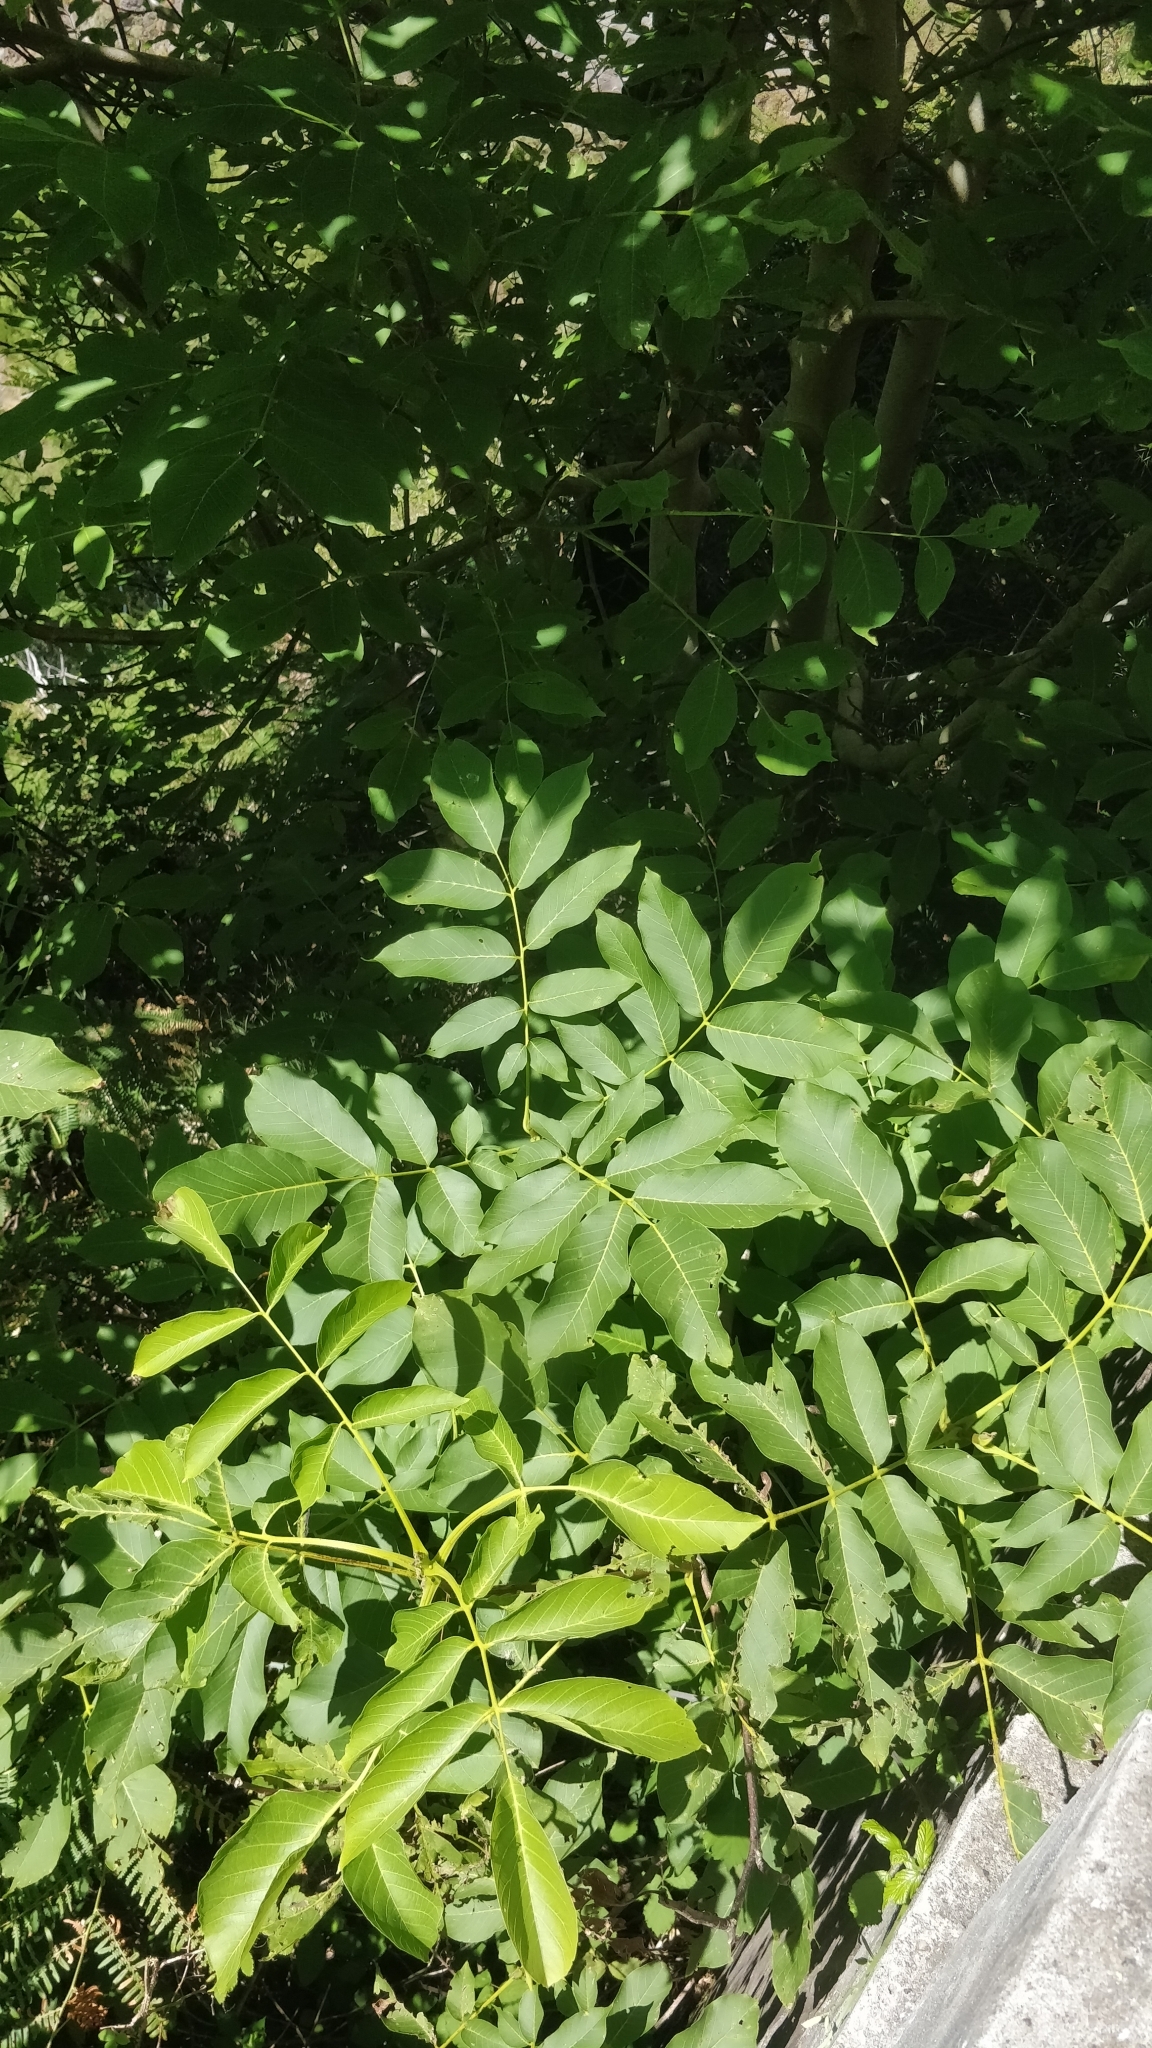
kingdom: Plantae
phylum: Tracheophyta
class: Magnoliopsida
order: Fagales
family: Juglandaceae
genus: Juglans
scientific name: Juglans regia
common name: Walnut
